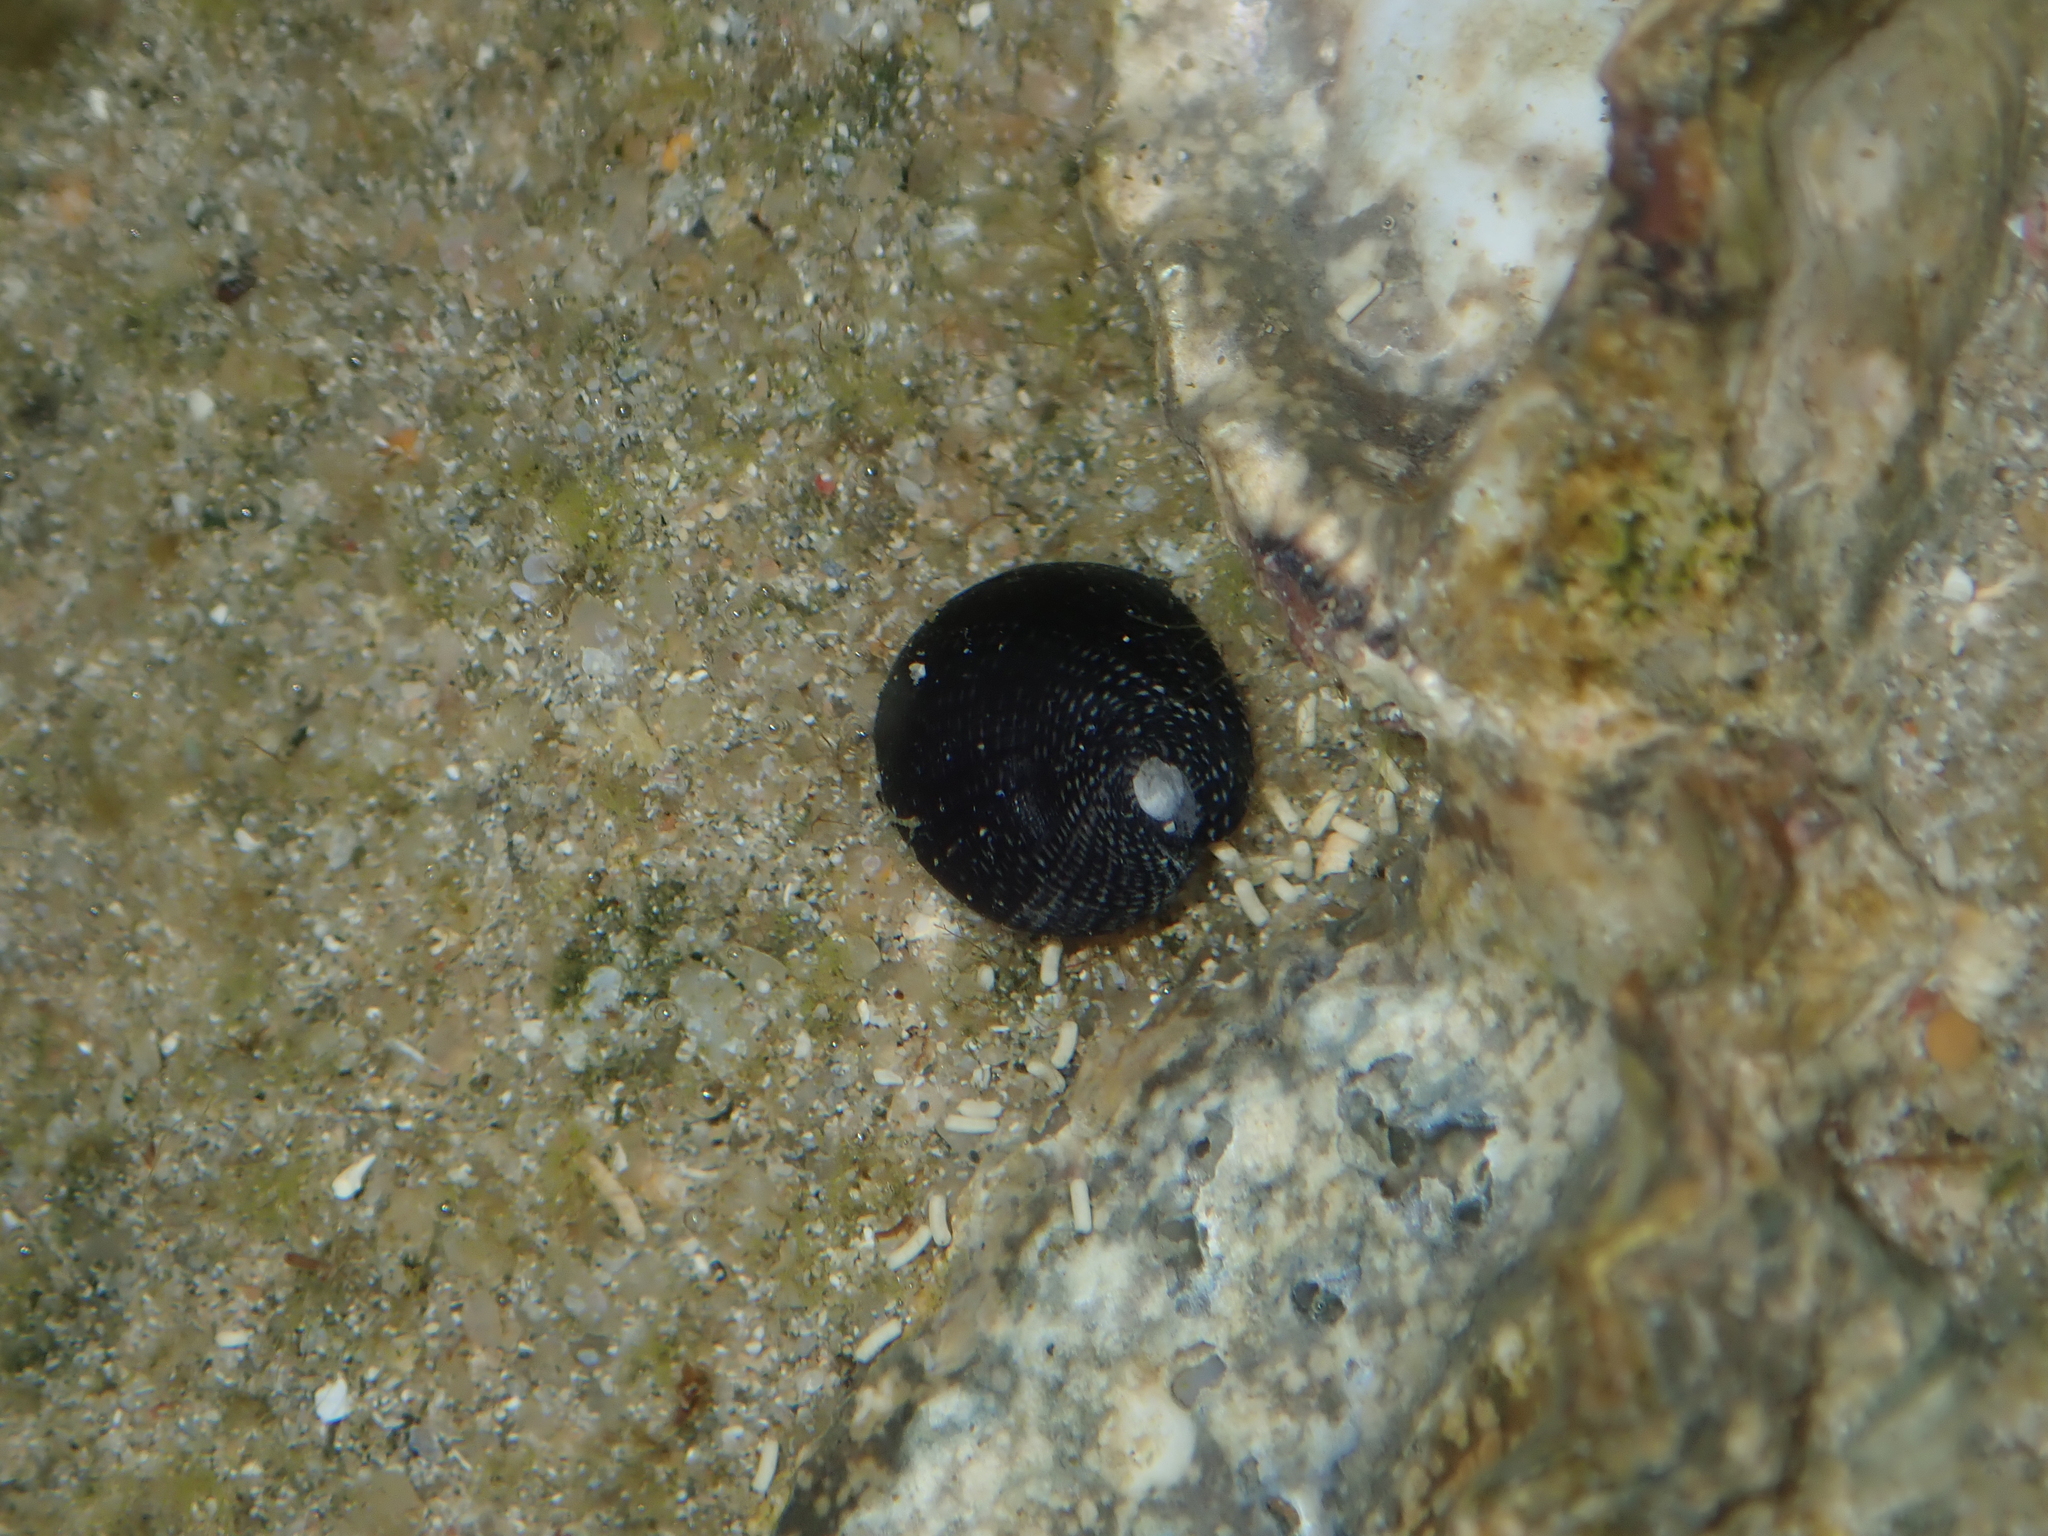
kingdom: Animalia
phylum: Mollusca
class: Gastropoda
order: Cycloneritida
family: Neritidae
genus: Nerita
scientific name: Nerita atramentosa
